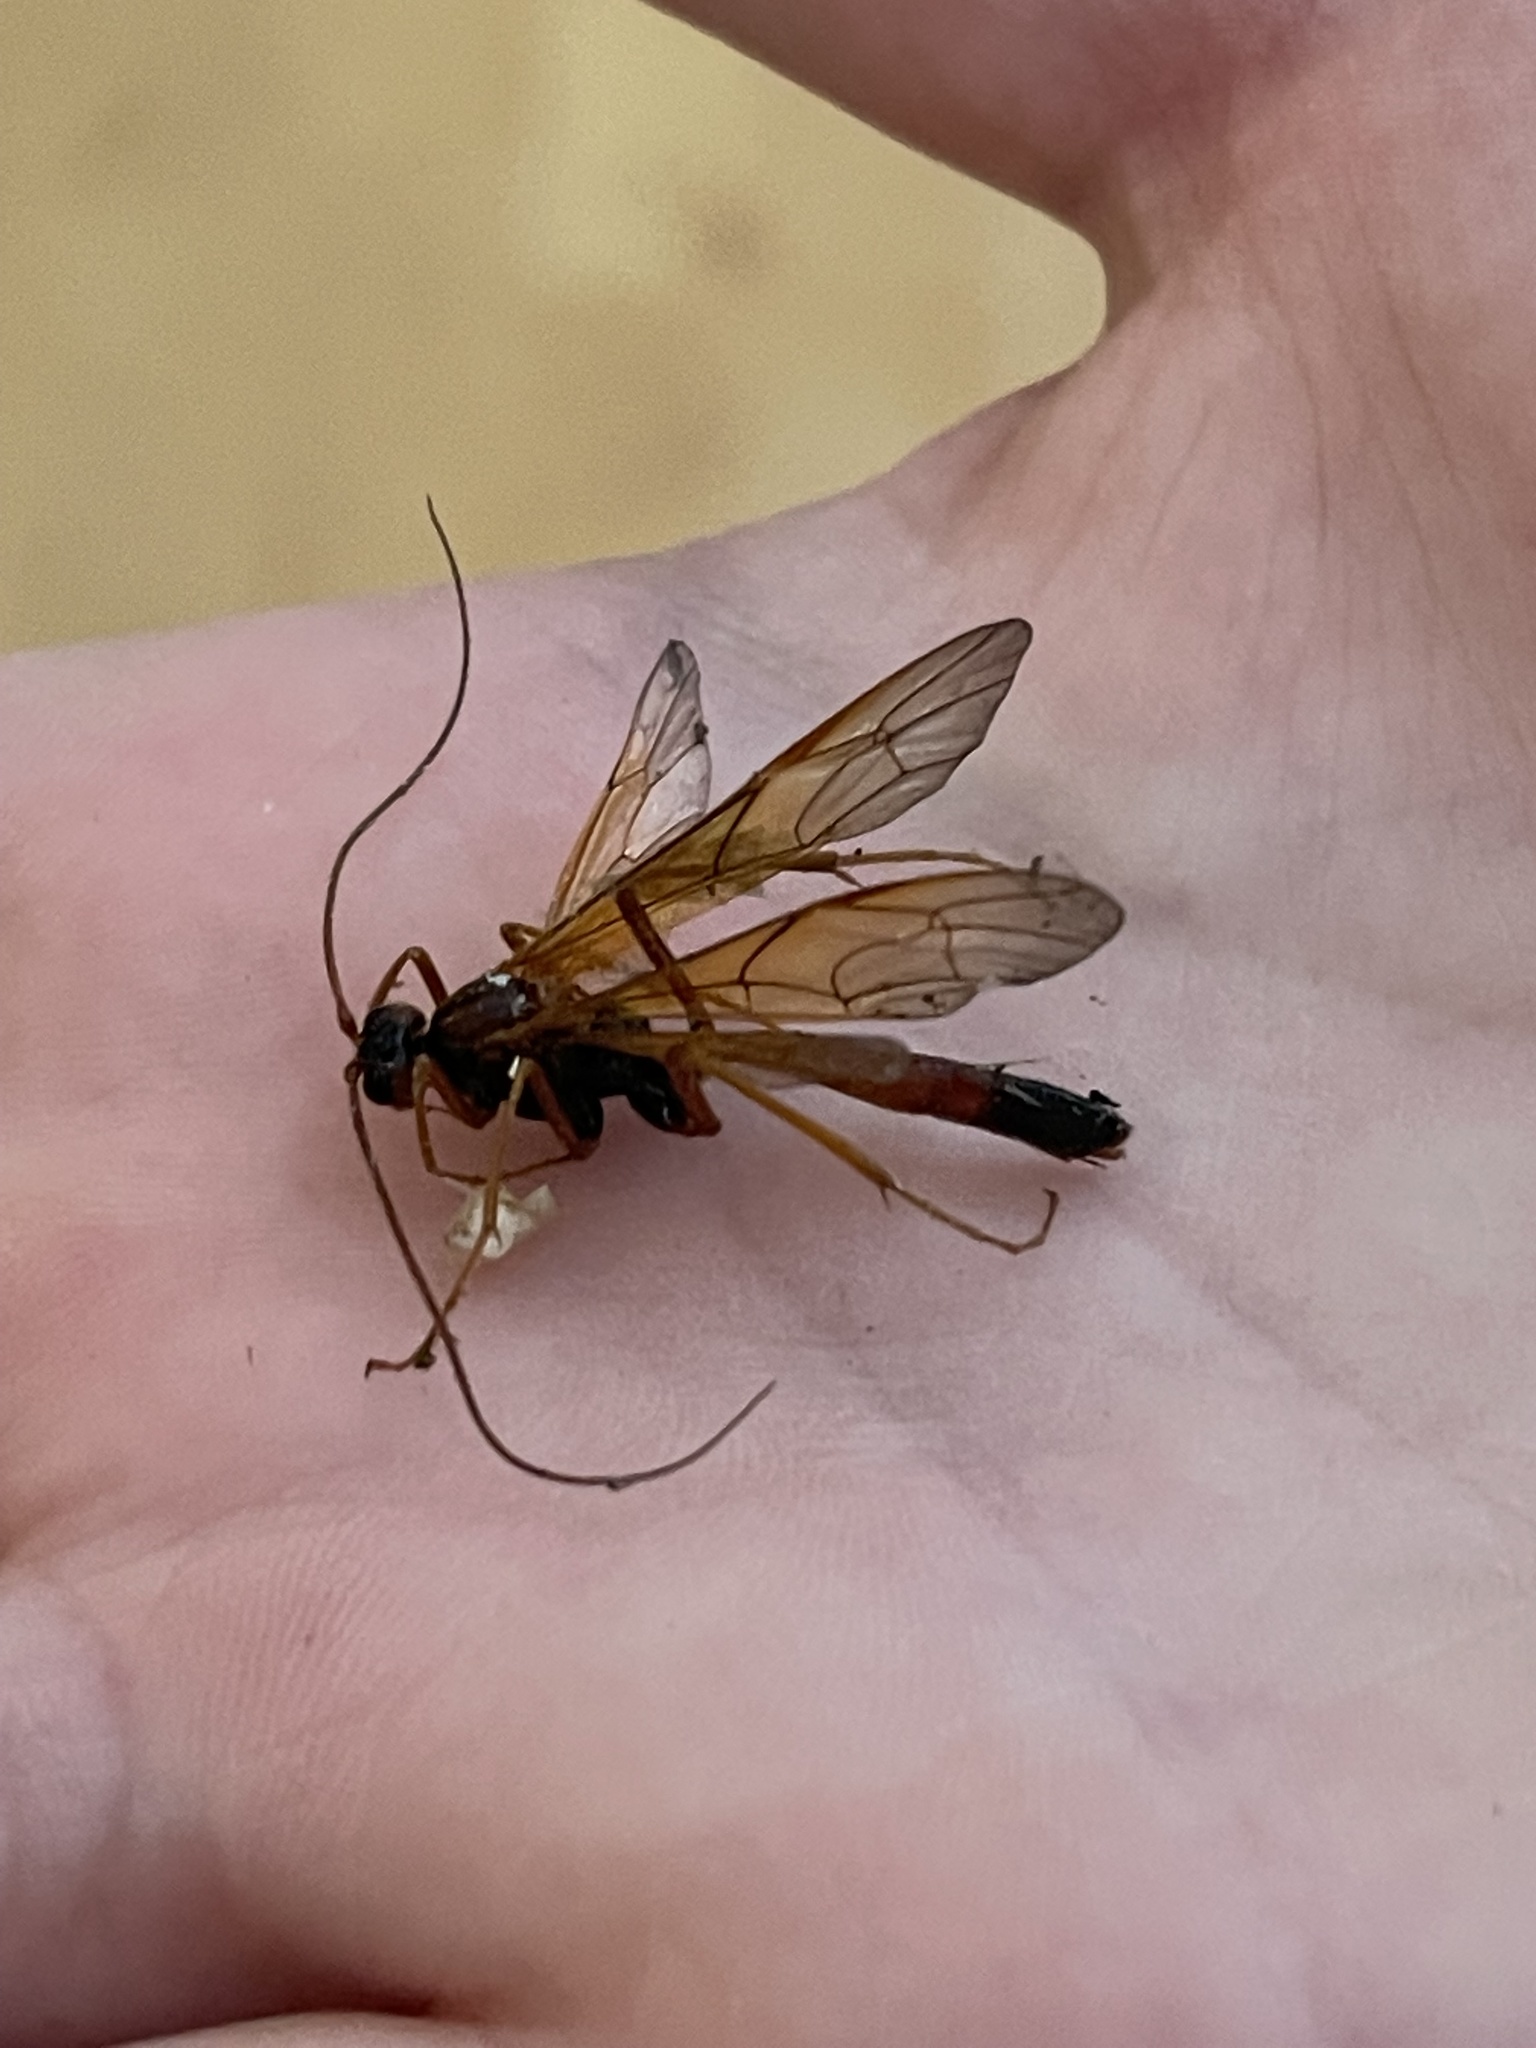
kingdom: Animalia
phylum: Arthropoda
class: Insecta
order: Hymenoptera
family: Ichneumonidae
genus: Opheltes
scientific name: Opheltes glaucopterus
